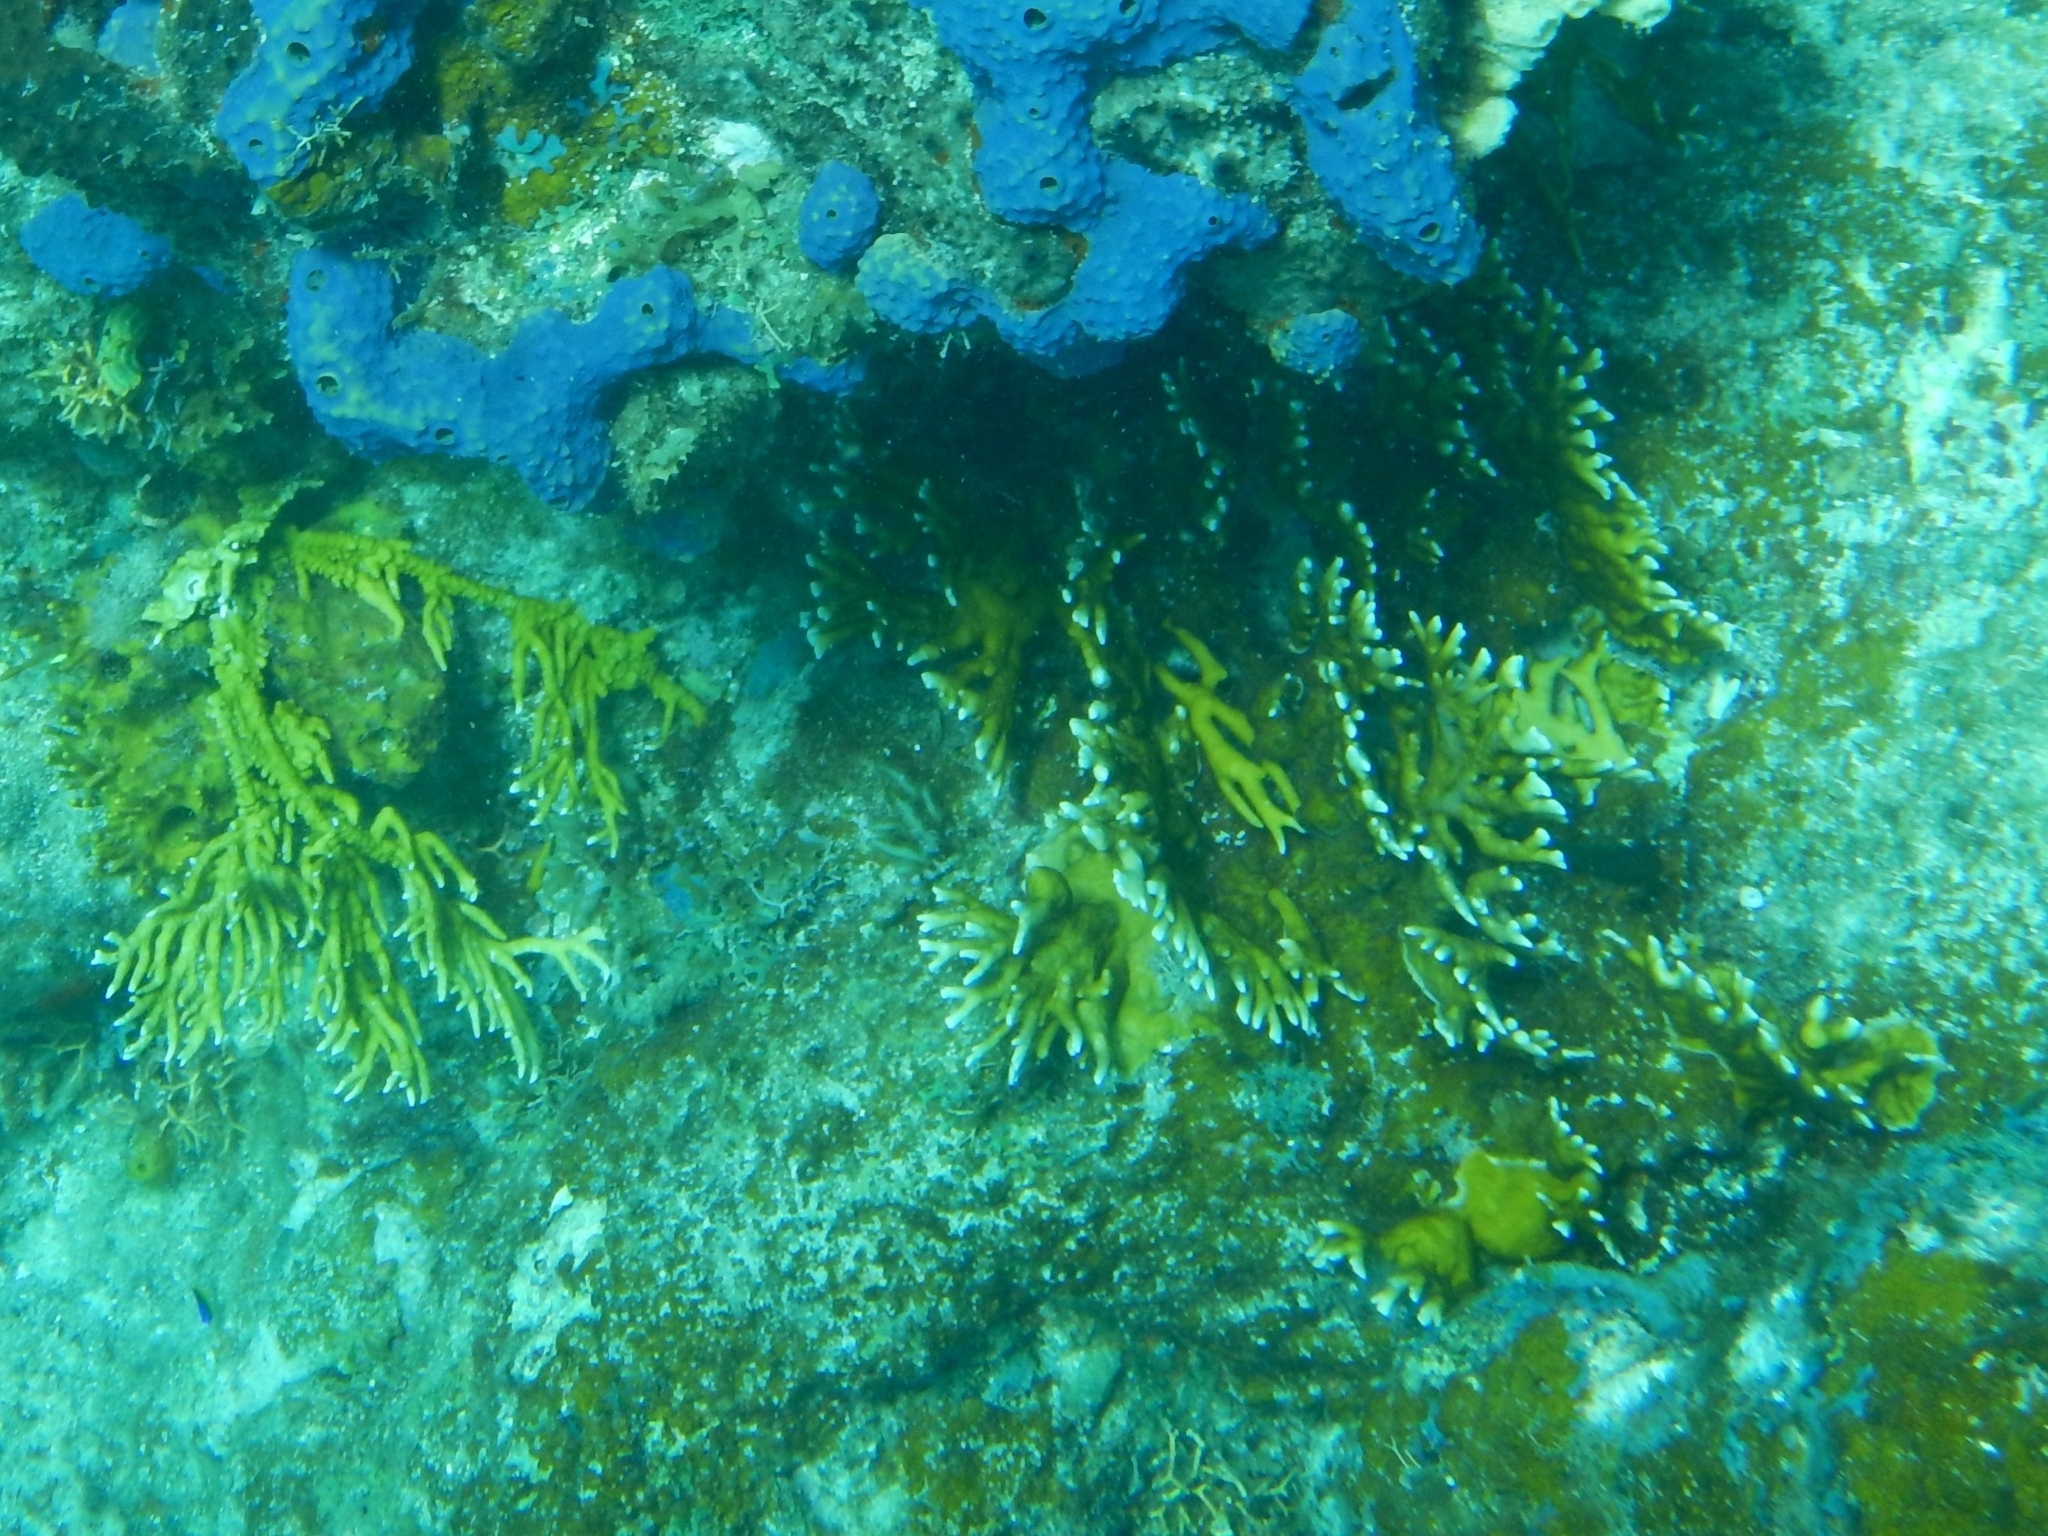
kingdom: Animalia
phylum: Cnidaria
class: Hydrozoa
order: Anthoathecata
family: Milleporidae
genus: Millepora
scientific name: Millepora alcicornis
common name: Branching fire coral
